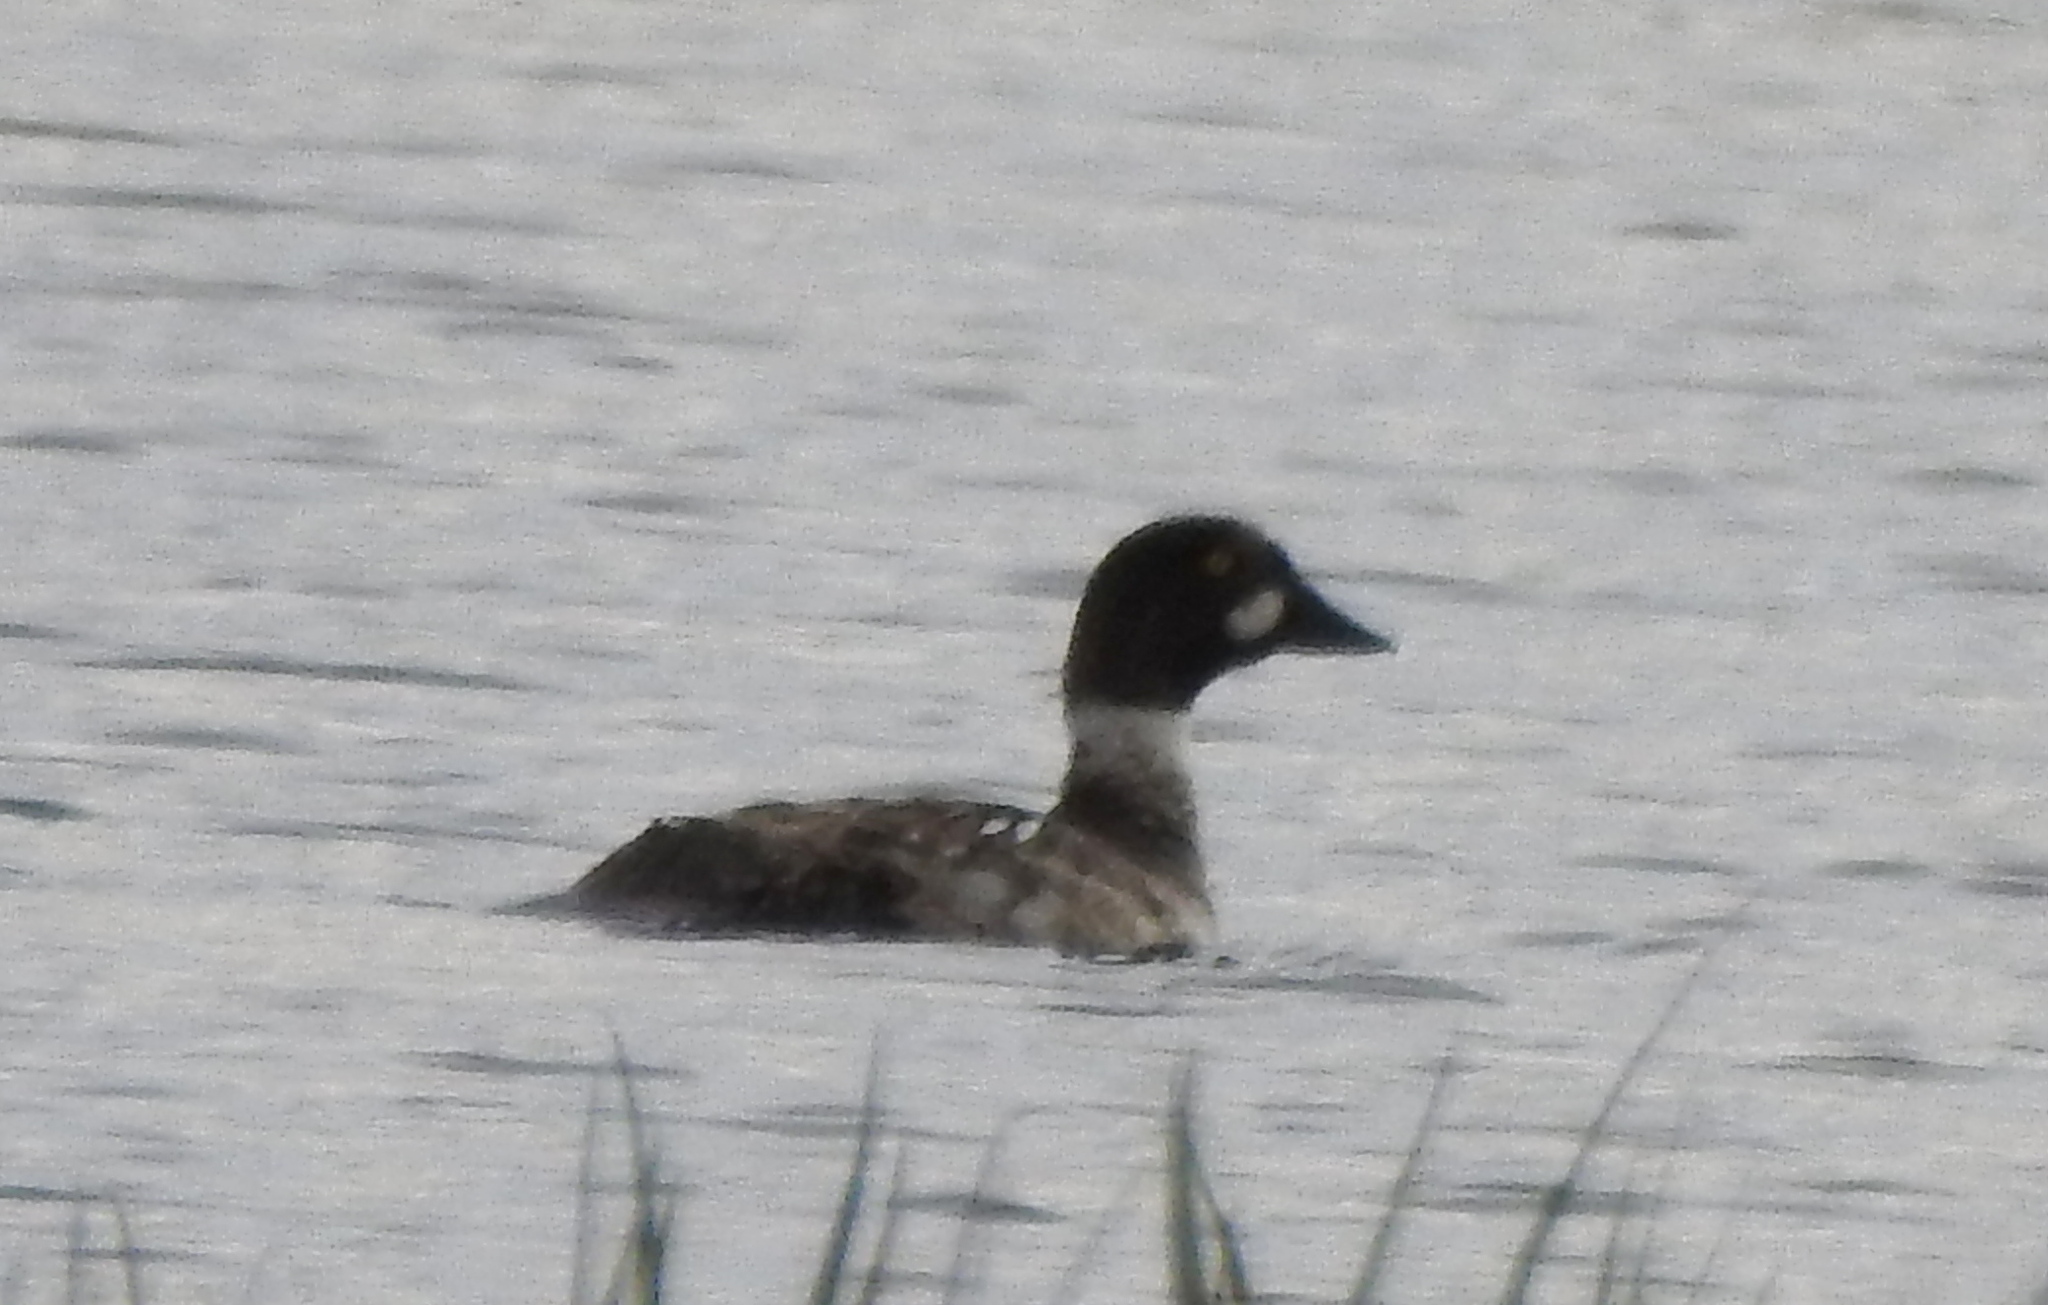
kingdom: Animalia
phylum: Chordata
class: Aves
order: Anseriformes
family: Anatidae
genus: Bucephala
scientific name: Bucephala clangula
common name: Common goldeneye
